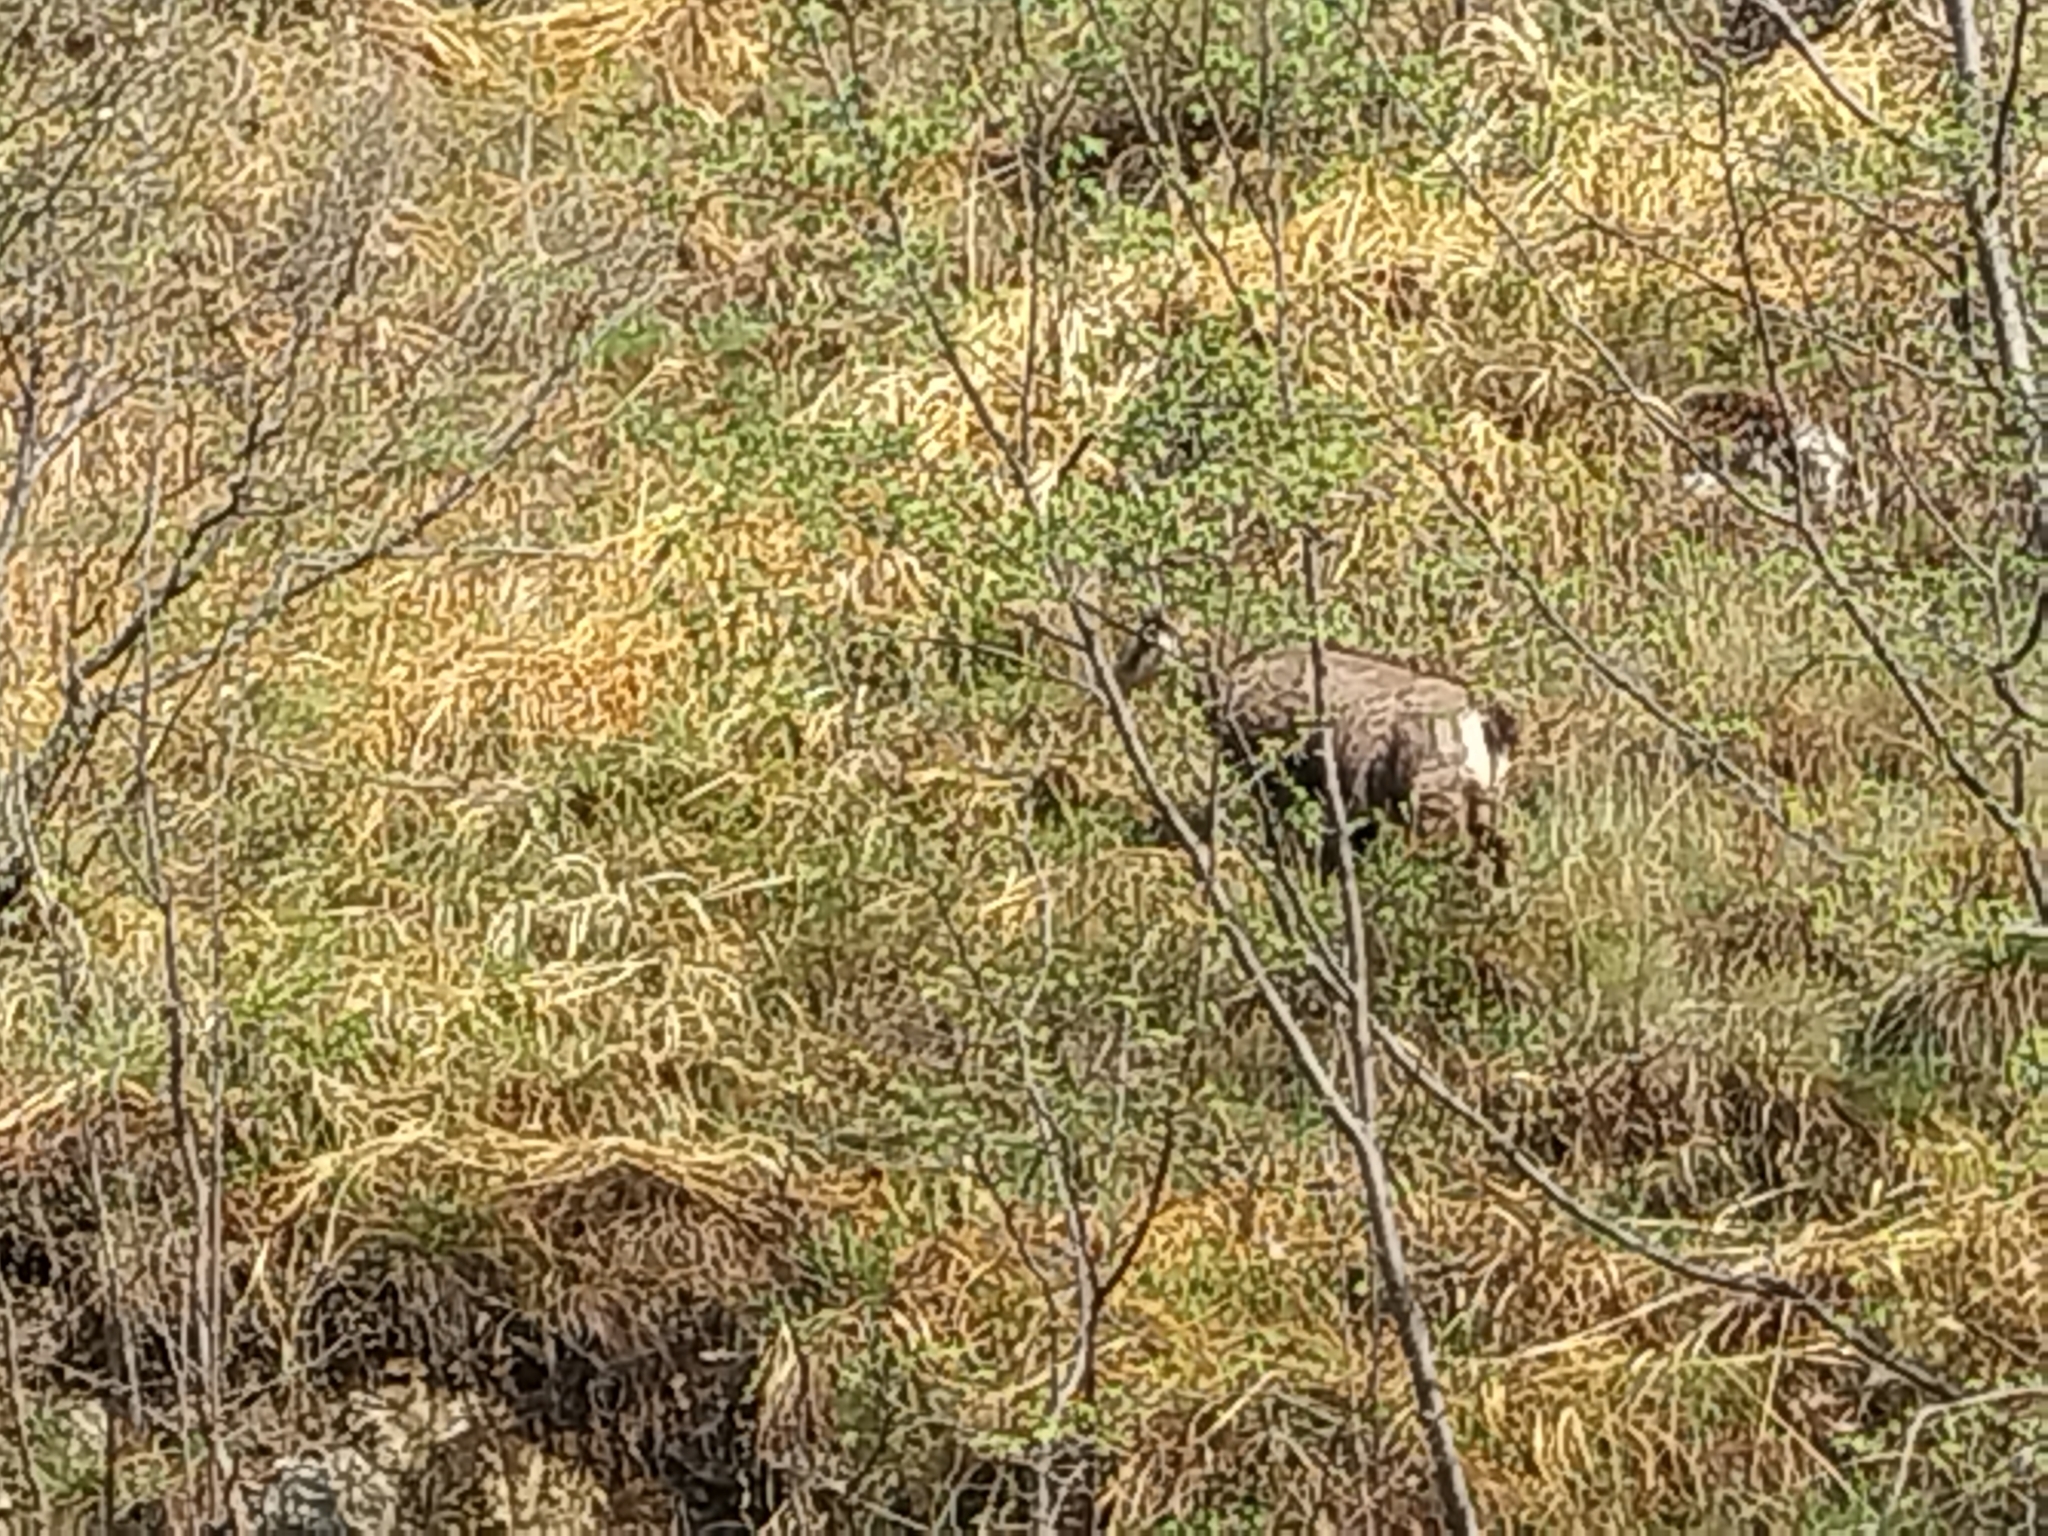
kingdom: Animalia
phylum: Chordata
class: Mammalia
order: Artiodactyla
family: Bovidae
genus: Rupicapra
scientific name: Rupicapra rupicapra
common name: Chamois
